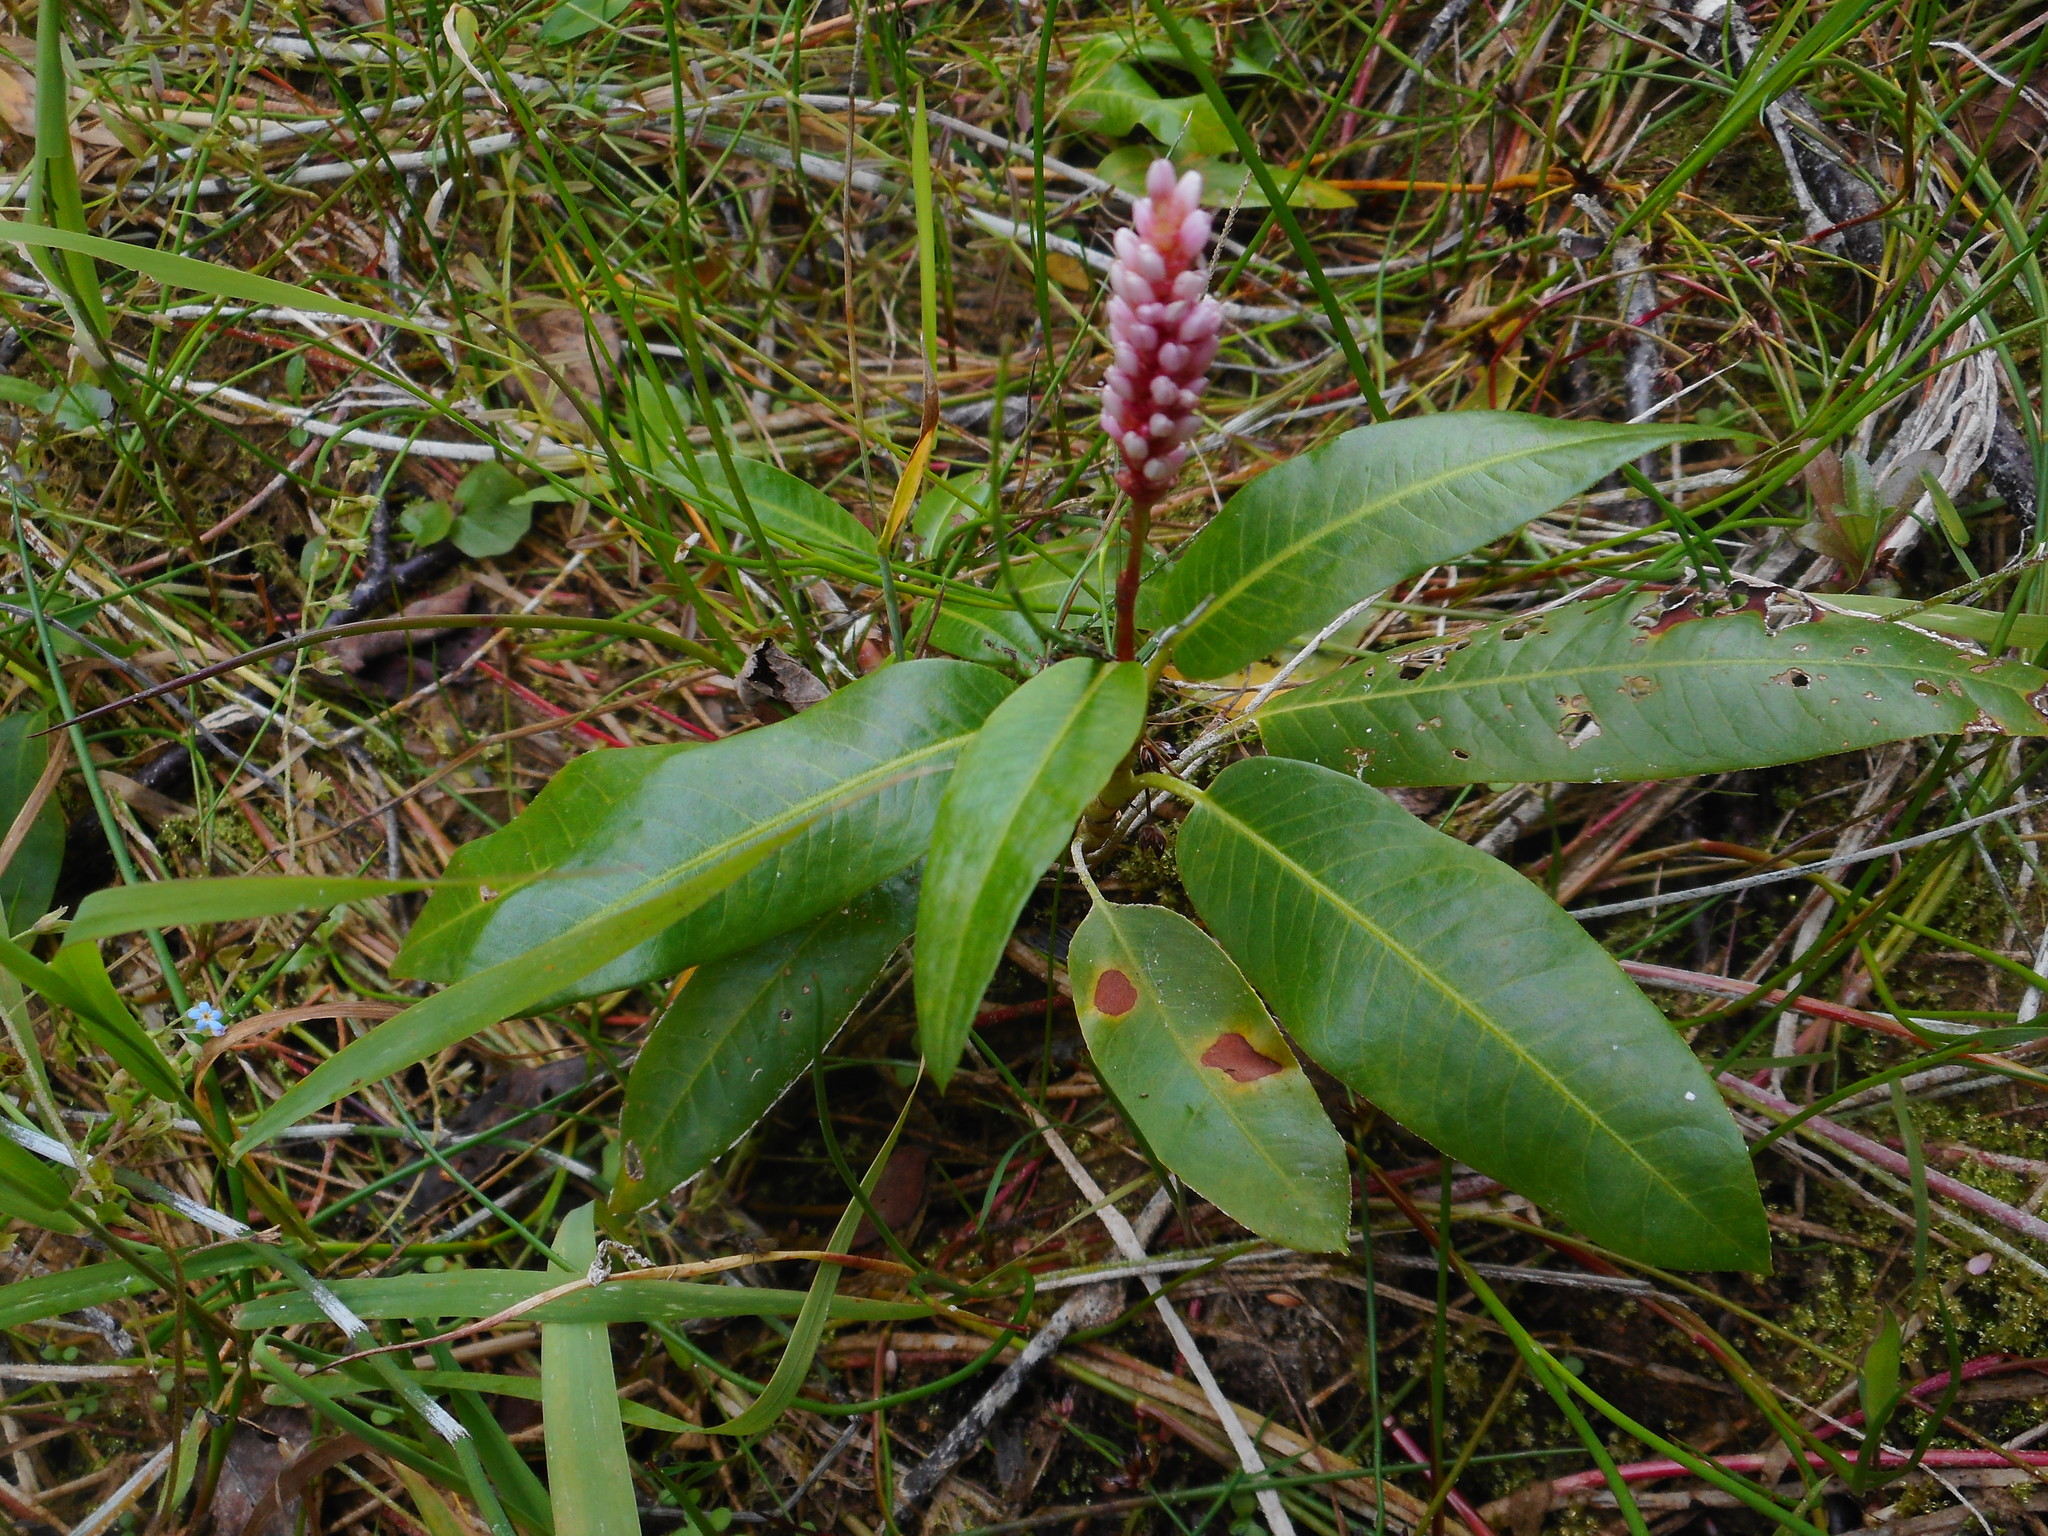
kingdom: Plantae
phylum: Tracheophyta
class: Magnoliopsida
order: Caryophyllales
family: Polygonaceae
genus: Persicaria
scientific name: Persicaria amphibia
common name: Amphibious bistort
